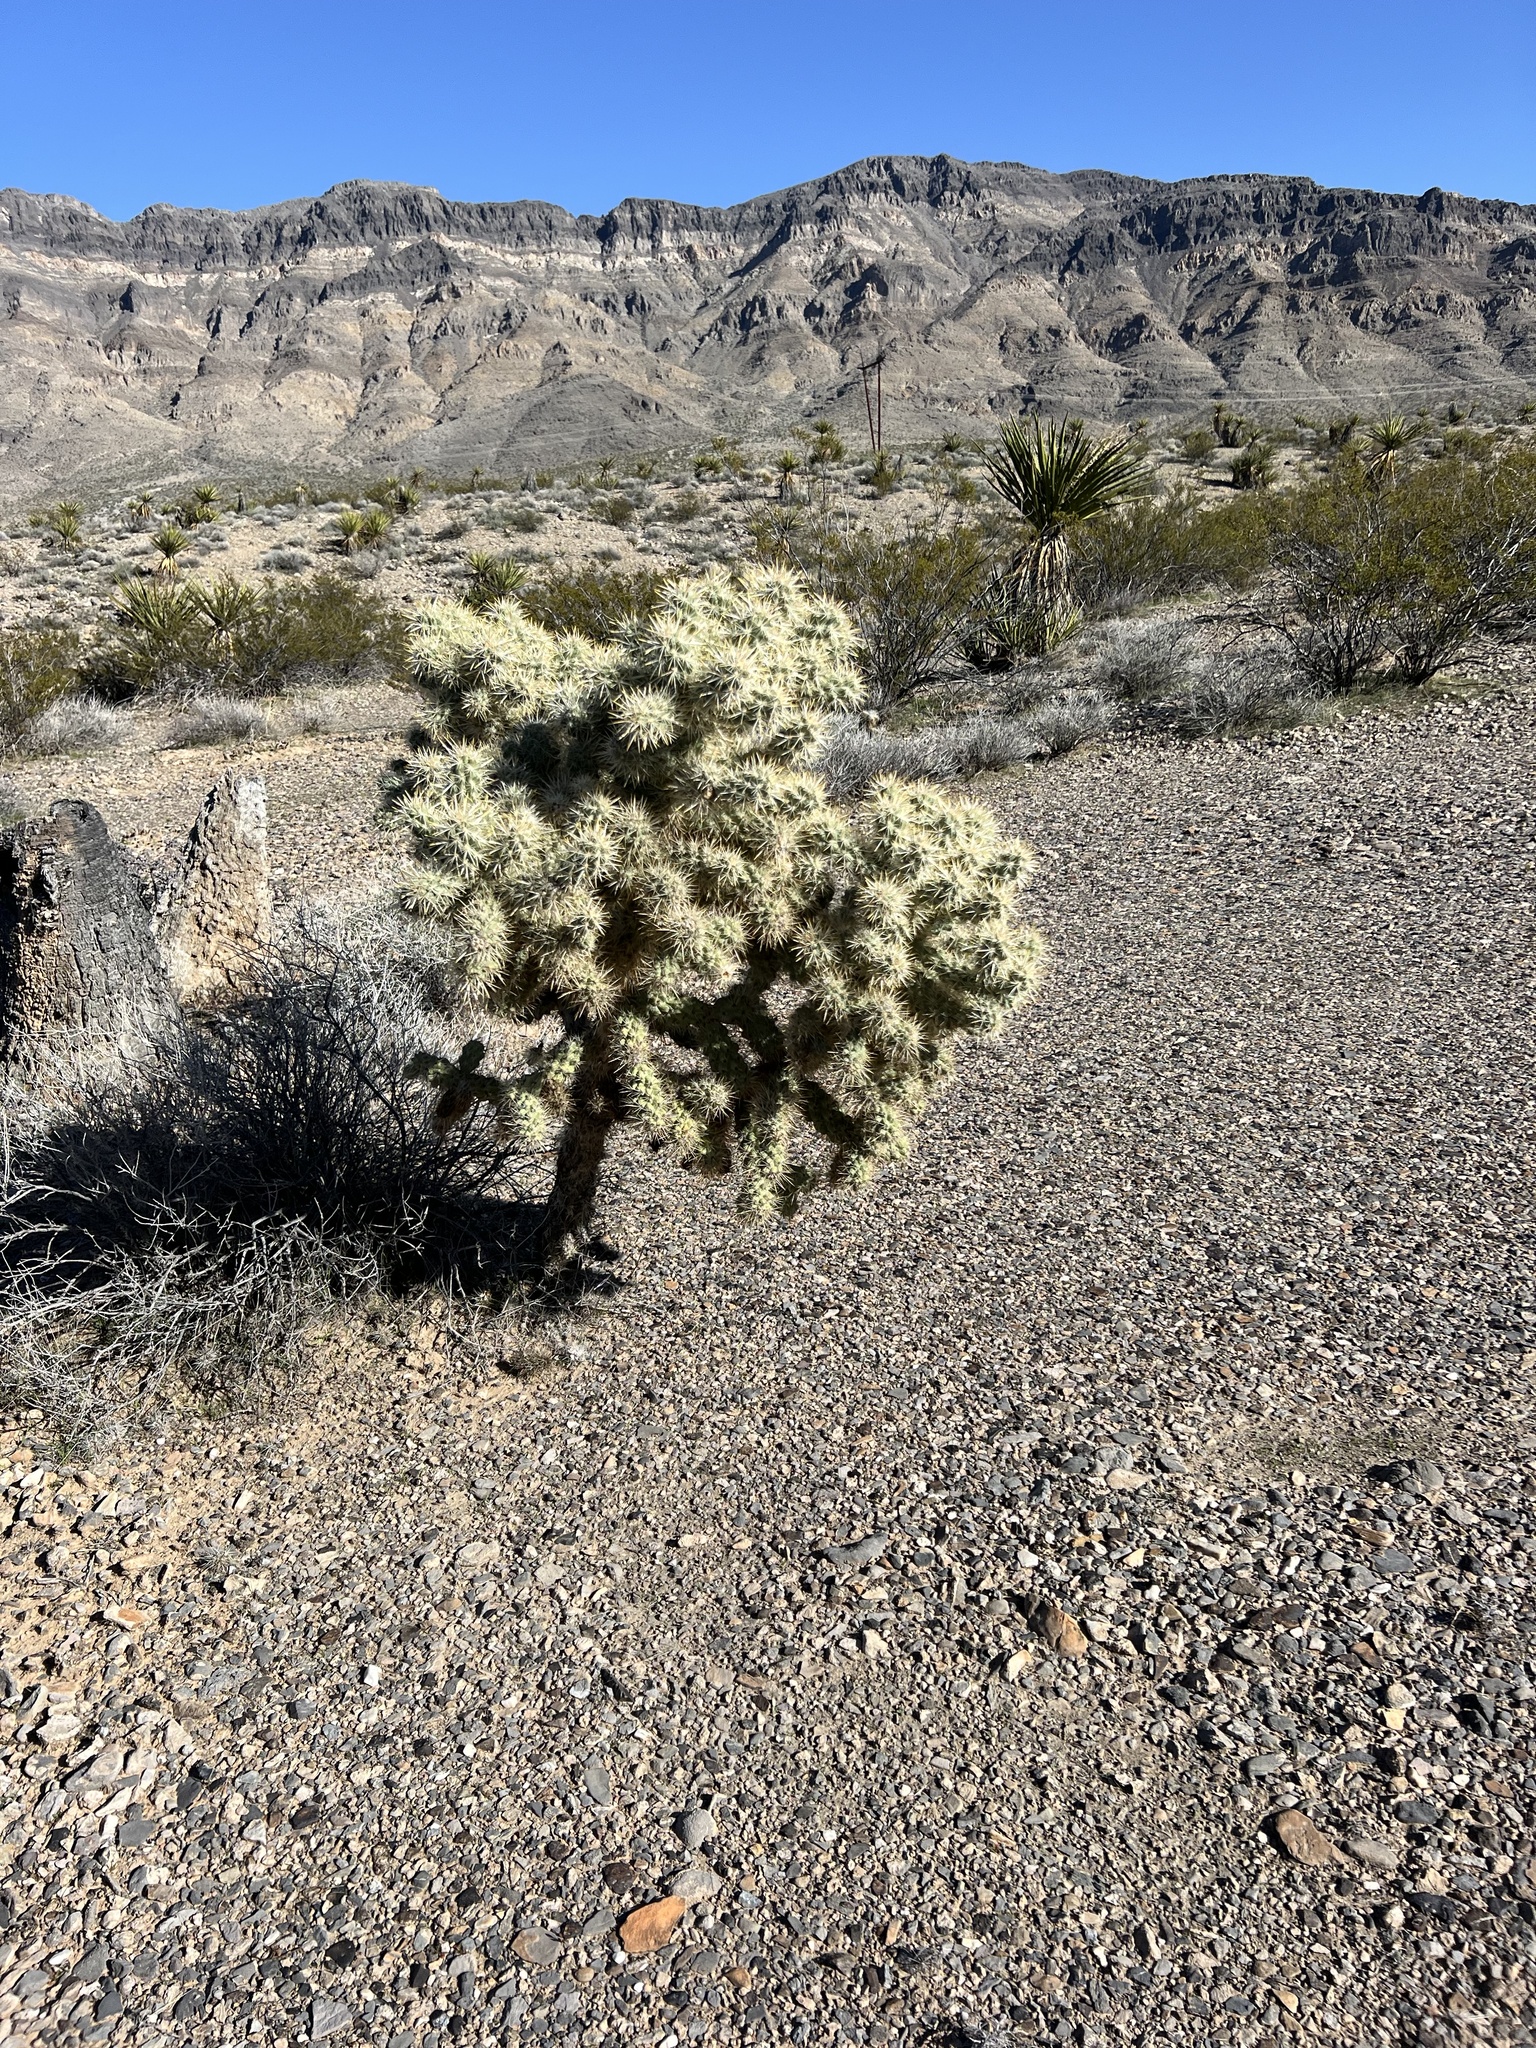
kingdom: Plantae
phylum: Tracheophyta
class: Magnoliopsida
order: Caryophyllales
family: Cactaceae
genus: Cylindropuntia
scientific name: Cylindropuntia echinocarpa
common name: Ground cholla
